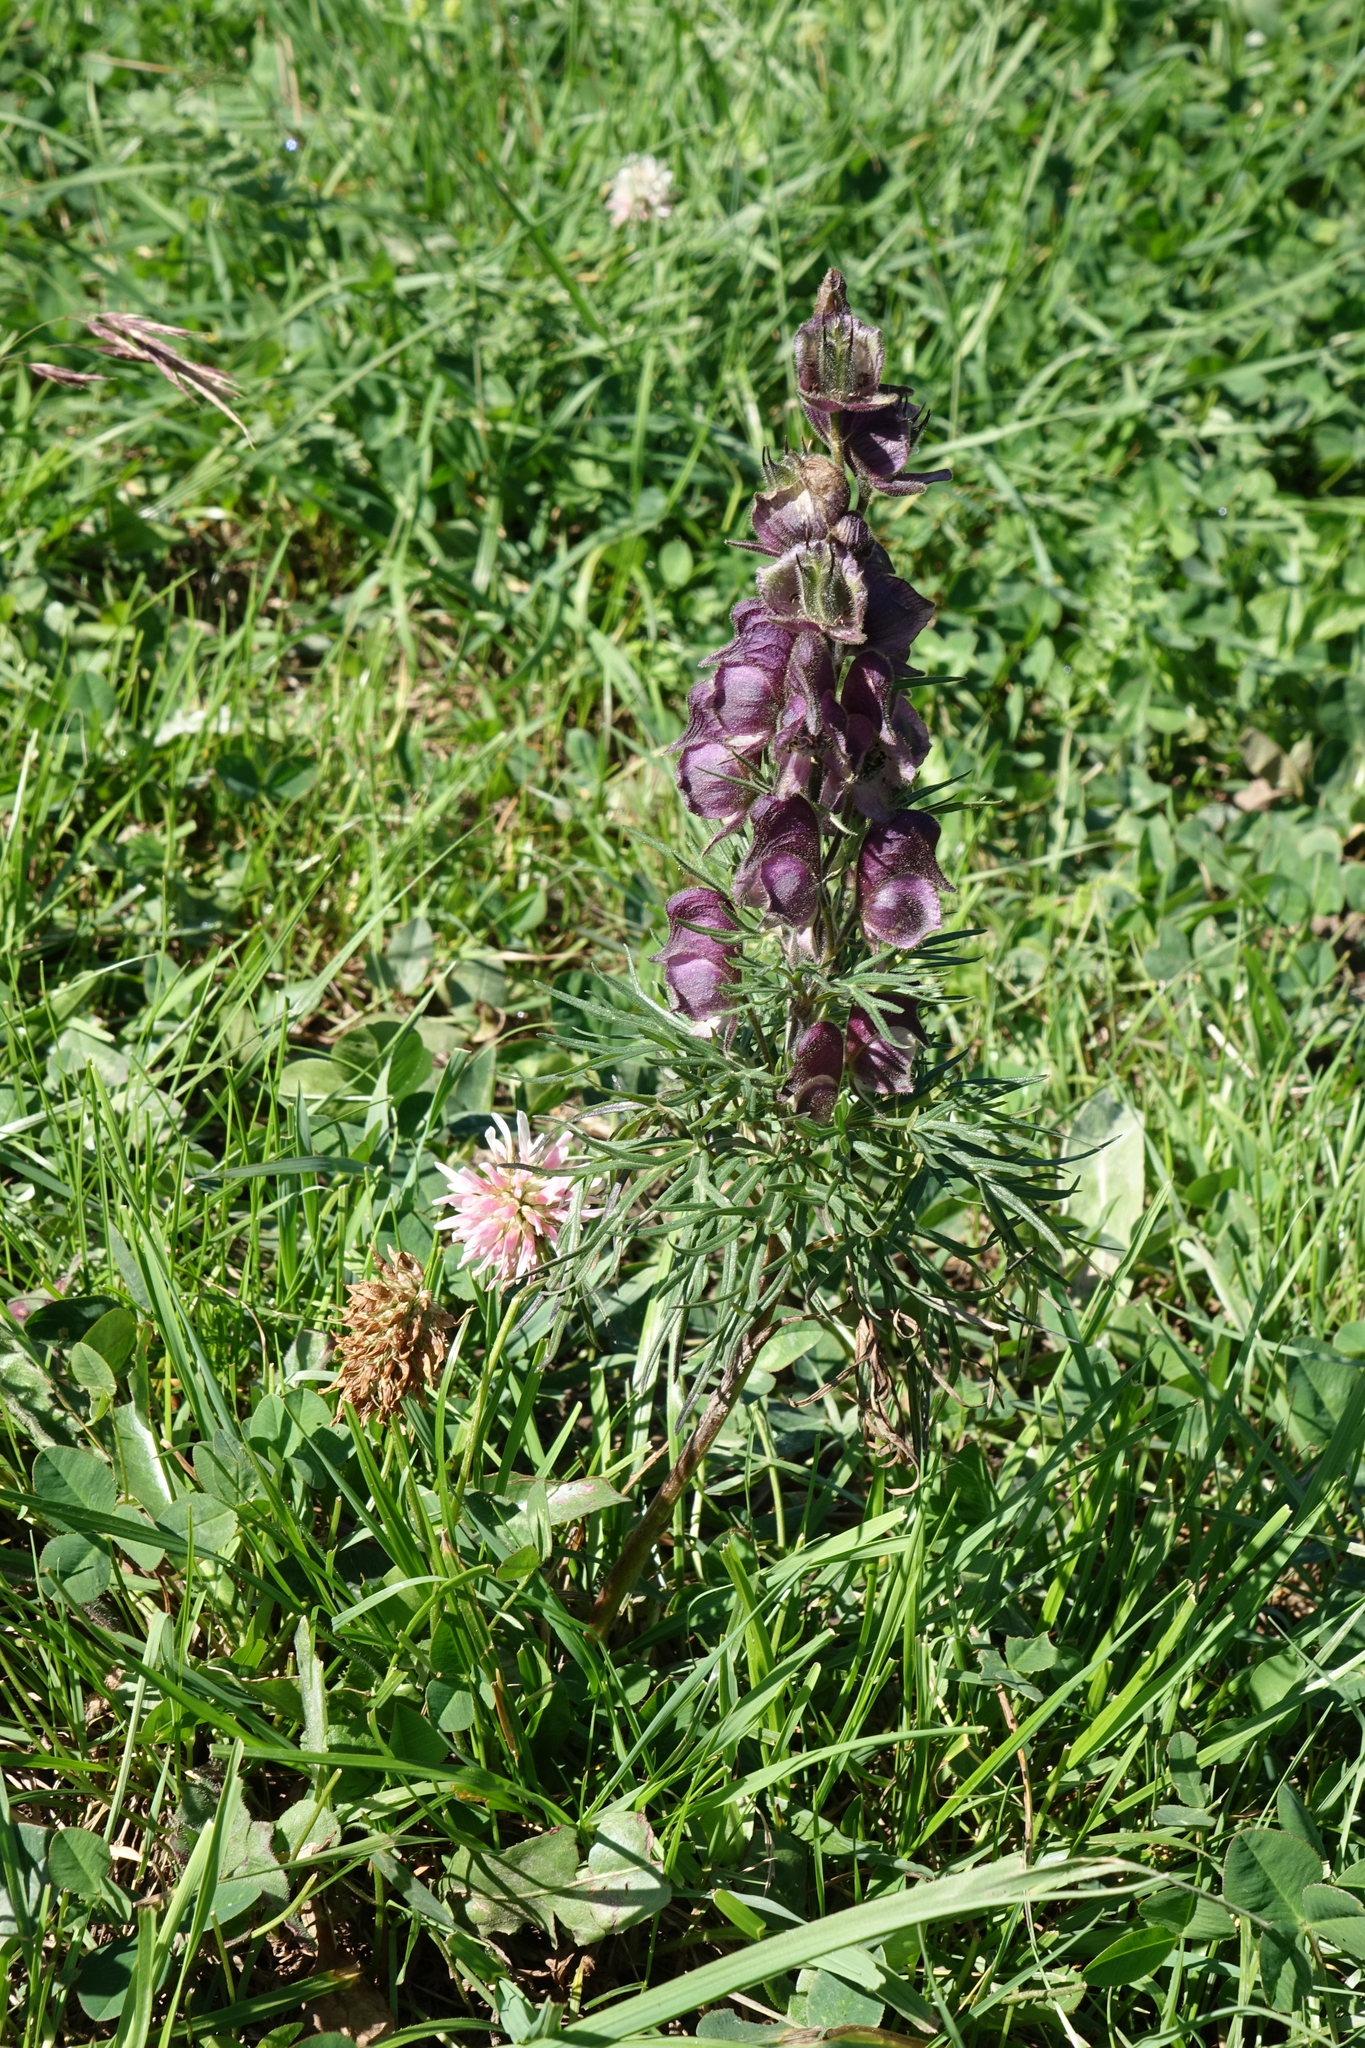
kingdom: Plantae
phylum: Tracheophyta
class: Magnoliopsida
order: Ranunculales
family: Ranunculaceae
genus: Aconitum
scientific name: Aconitum anthora
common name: Yellow monkshood
